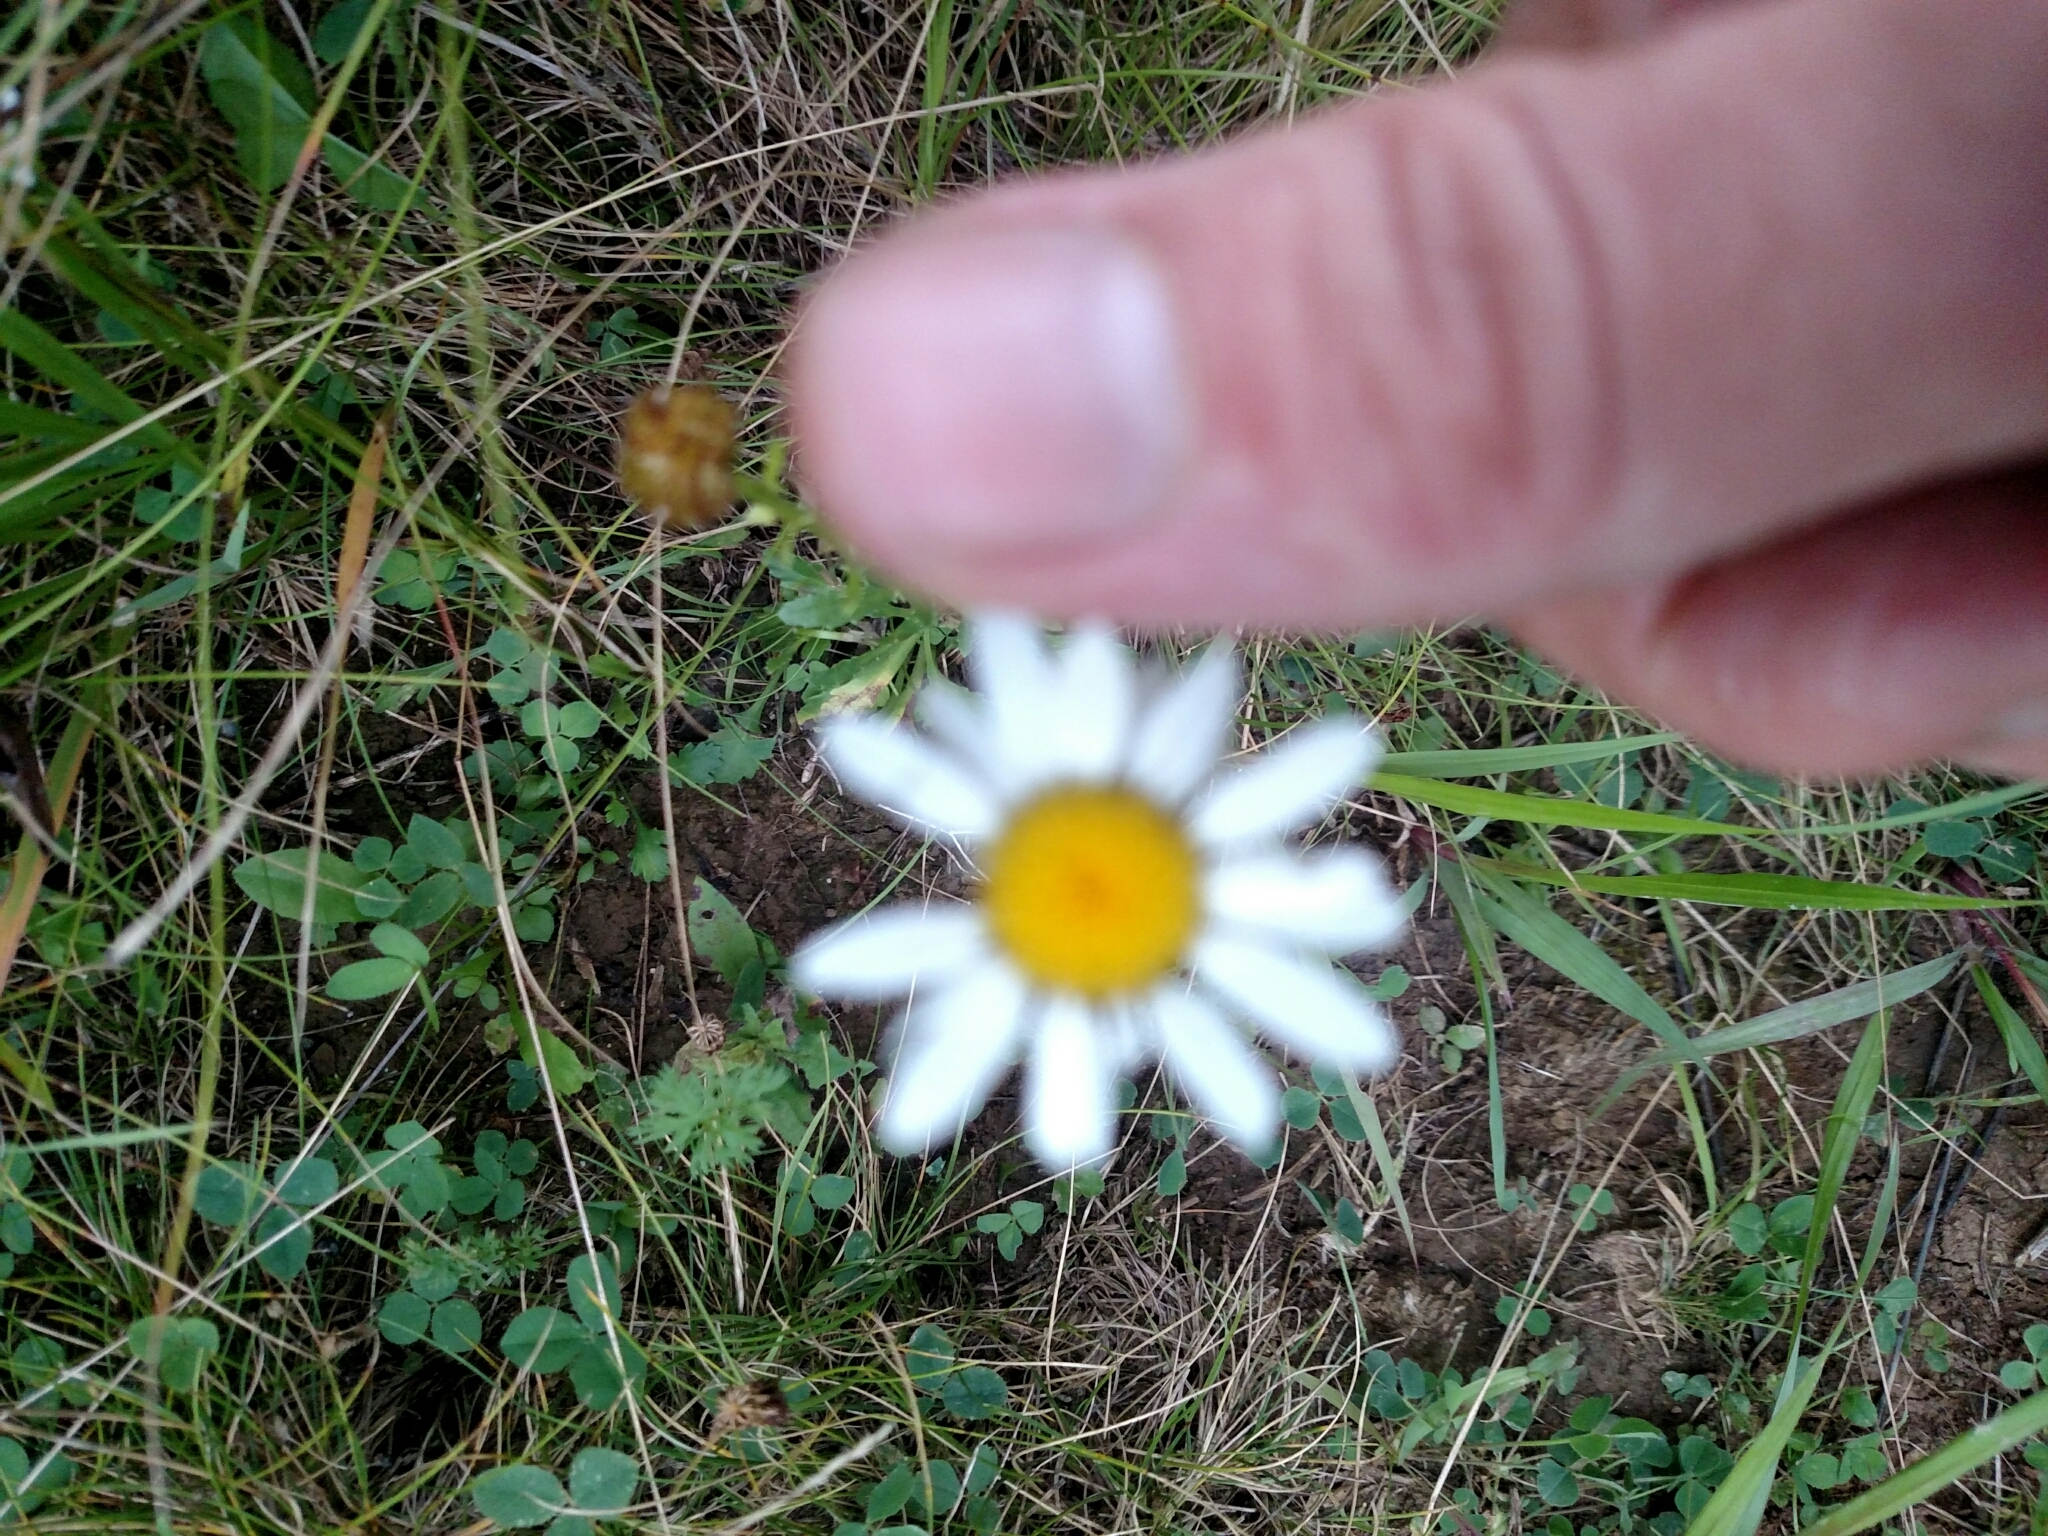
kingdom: Plantae
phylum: Tracheophyta
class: Magnoliopsida
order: Asterales
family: Asteraceae
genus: Leucanthemum
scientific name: Leucanthemum vulgare
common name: Oxeye daisy
